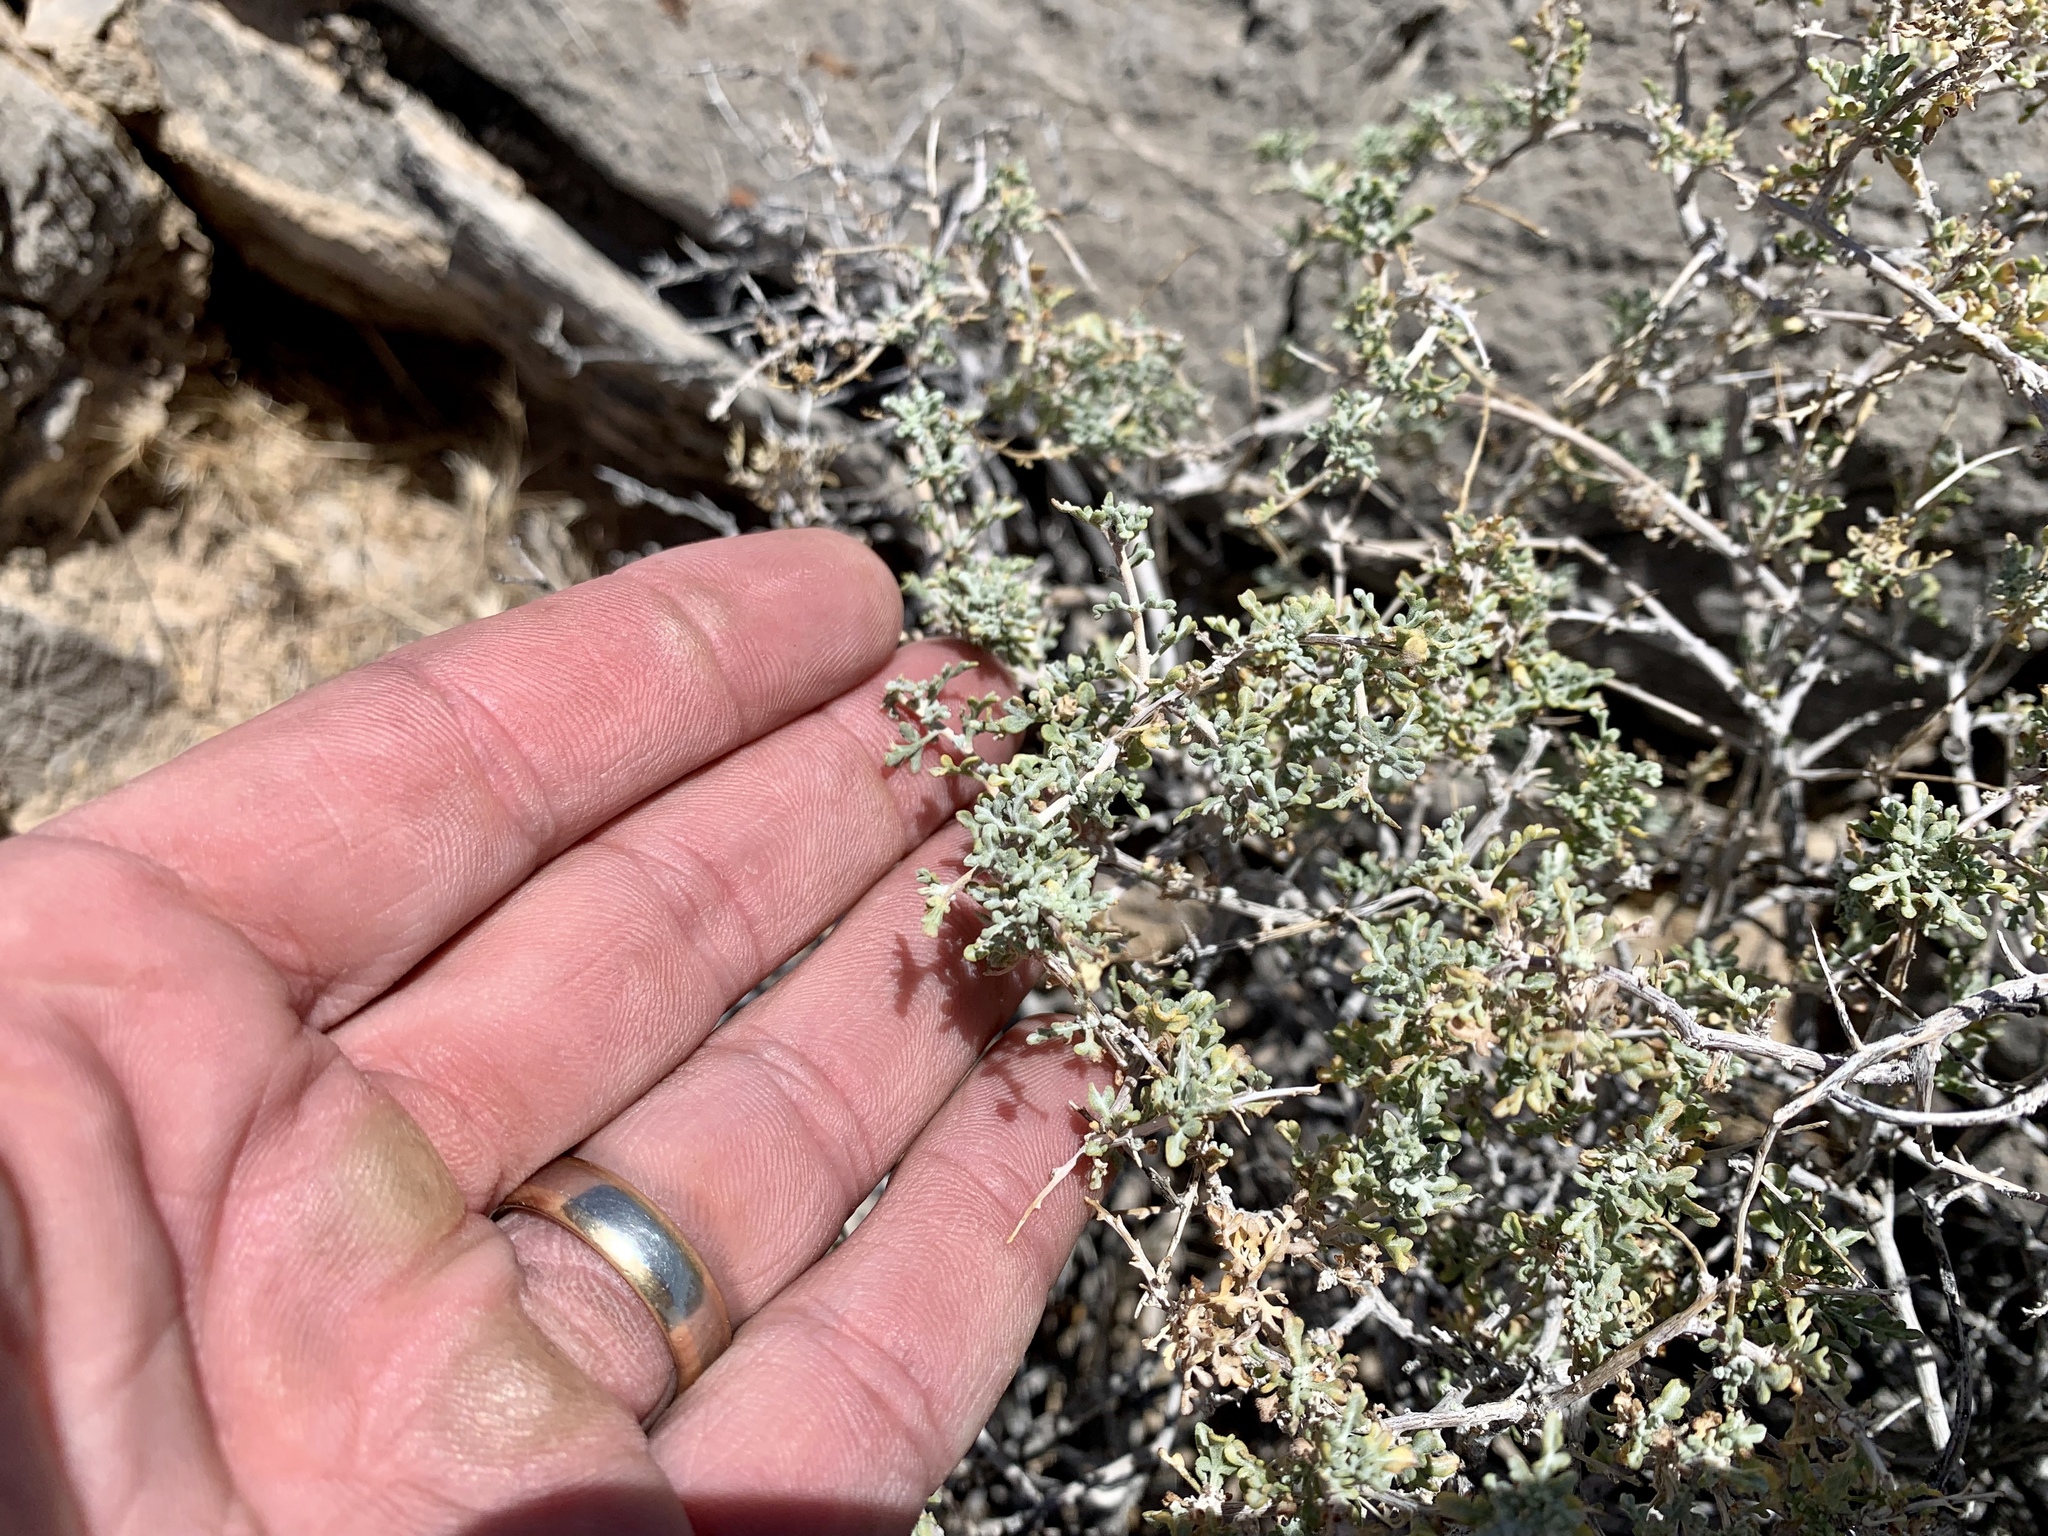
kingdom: Plantae
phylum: Tracheophyta
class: Magnoliopsida
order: Asterales
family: Asteraceae
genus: Ambrosia
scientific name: Ambrosia dumosa
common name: Bur-sage
